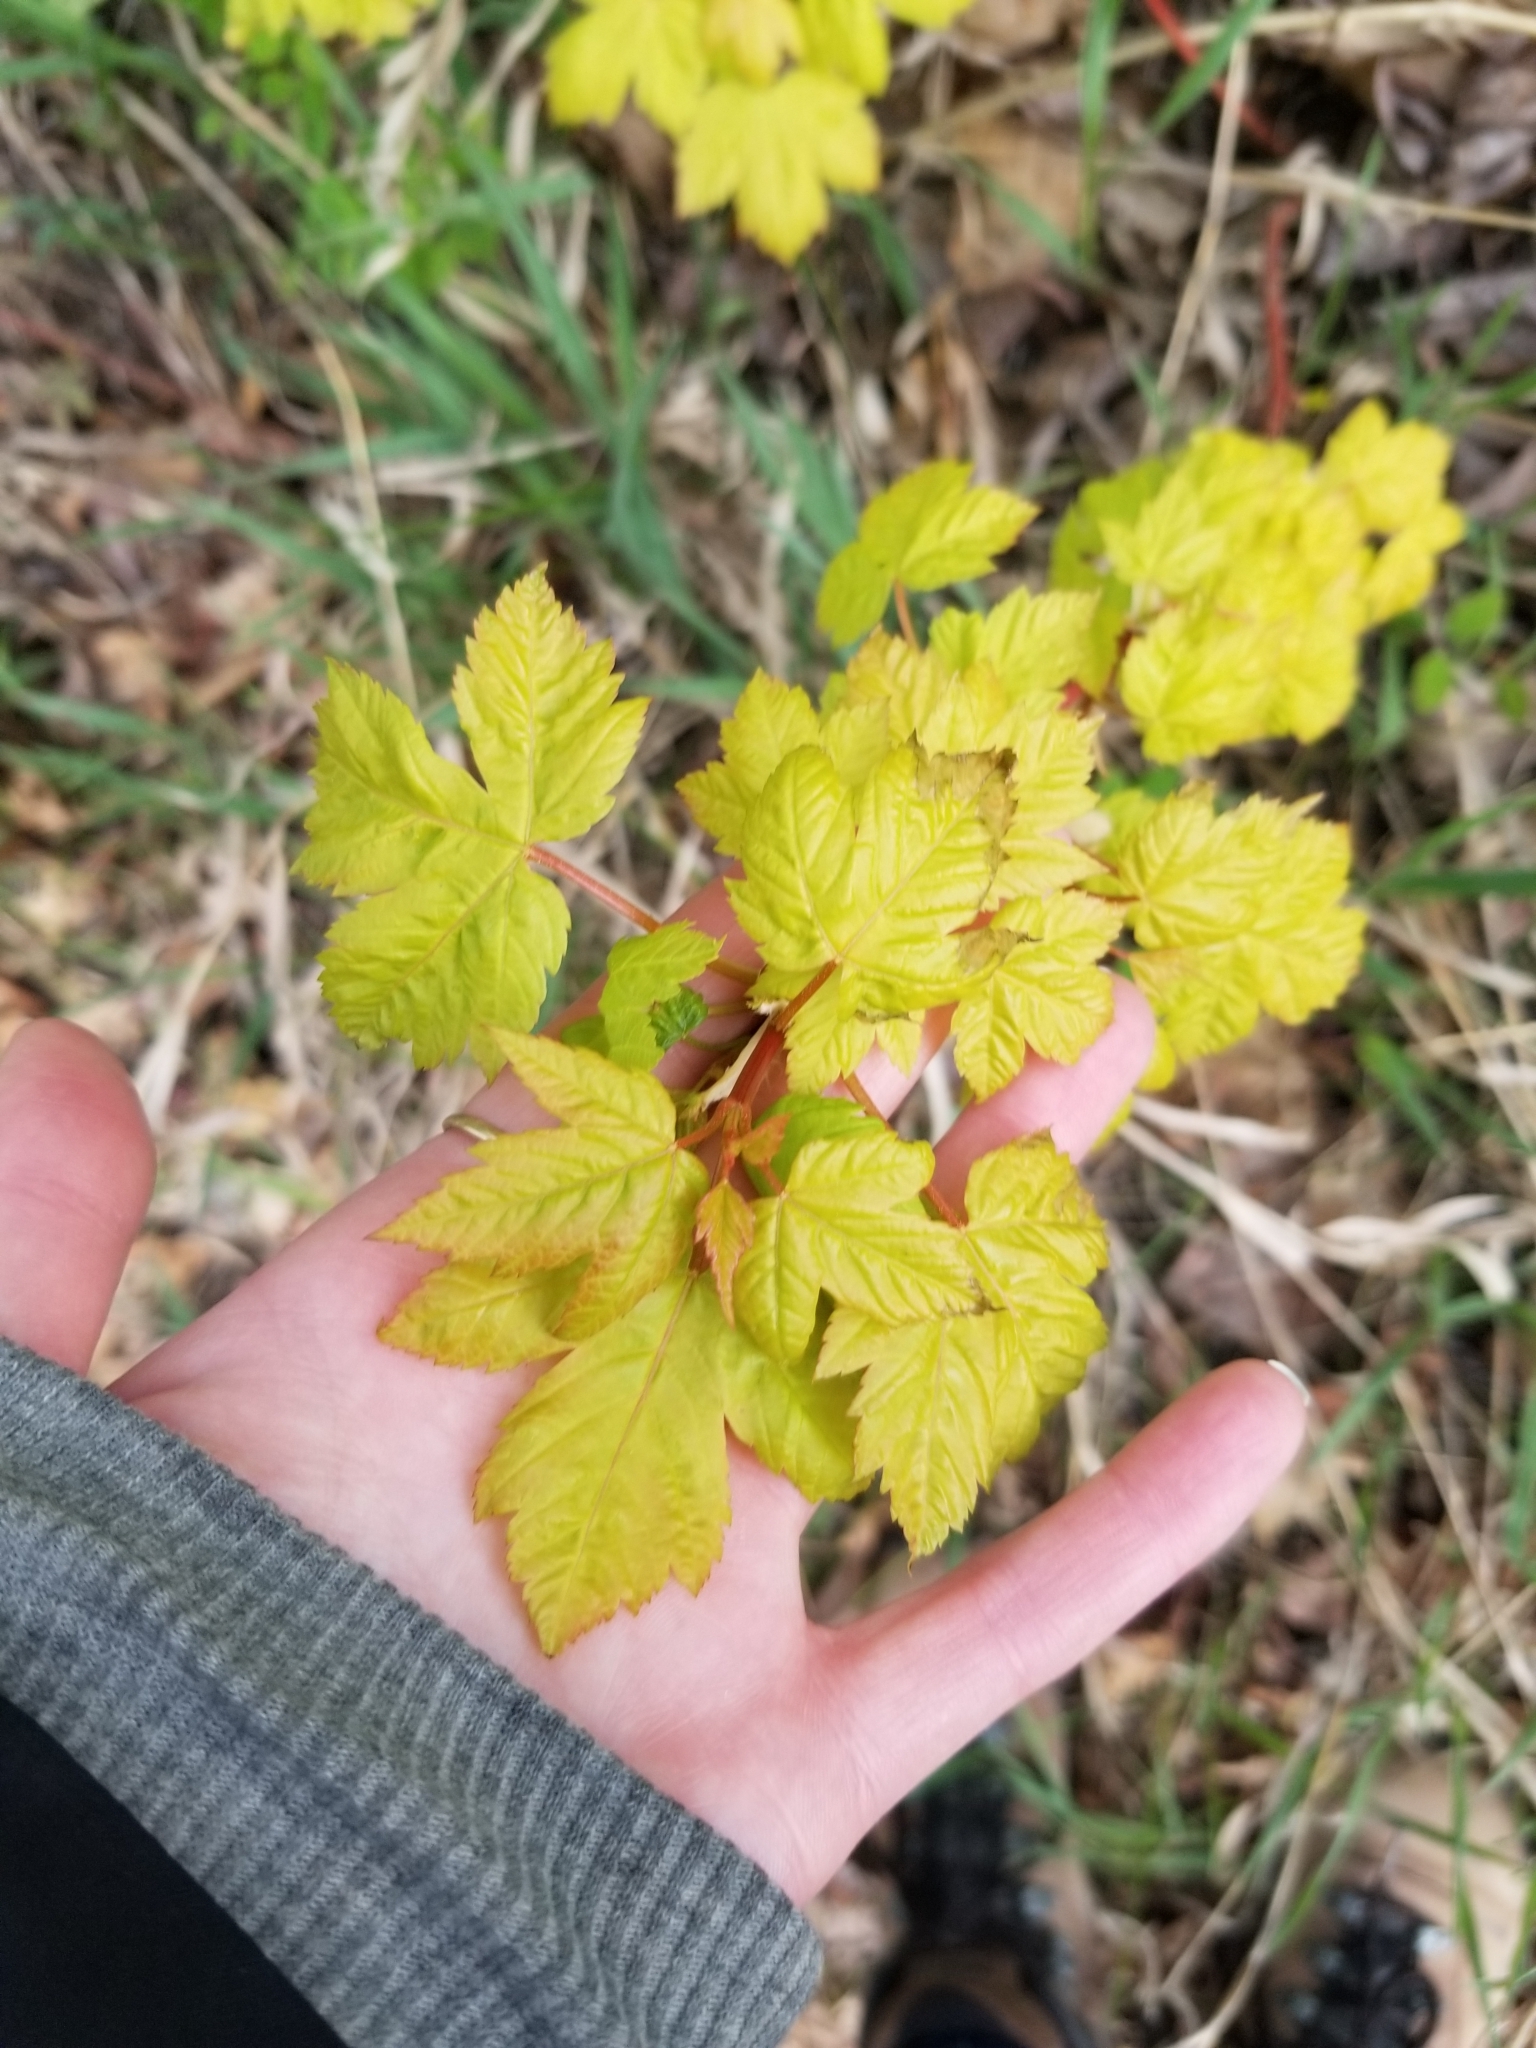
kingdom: Plantae
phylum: Tracheophyta
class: Magnoliopsida
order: Sapindales
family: Sapindaceae
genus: Acer
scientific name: Acer glabrum
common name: Rocky mountain maple
